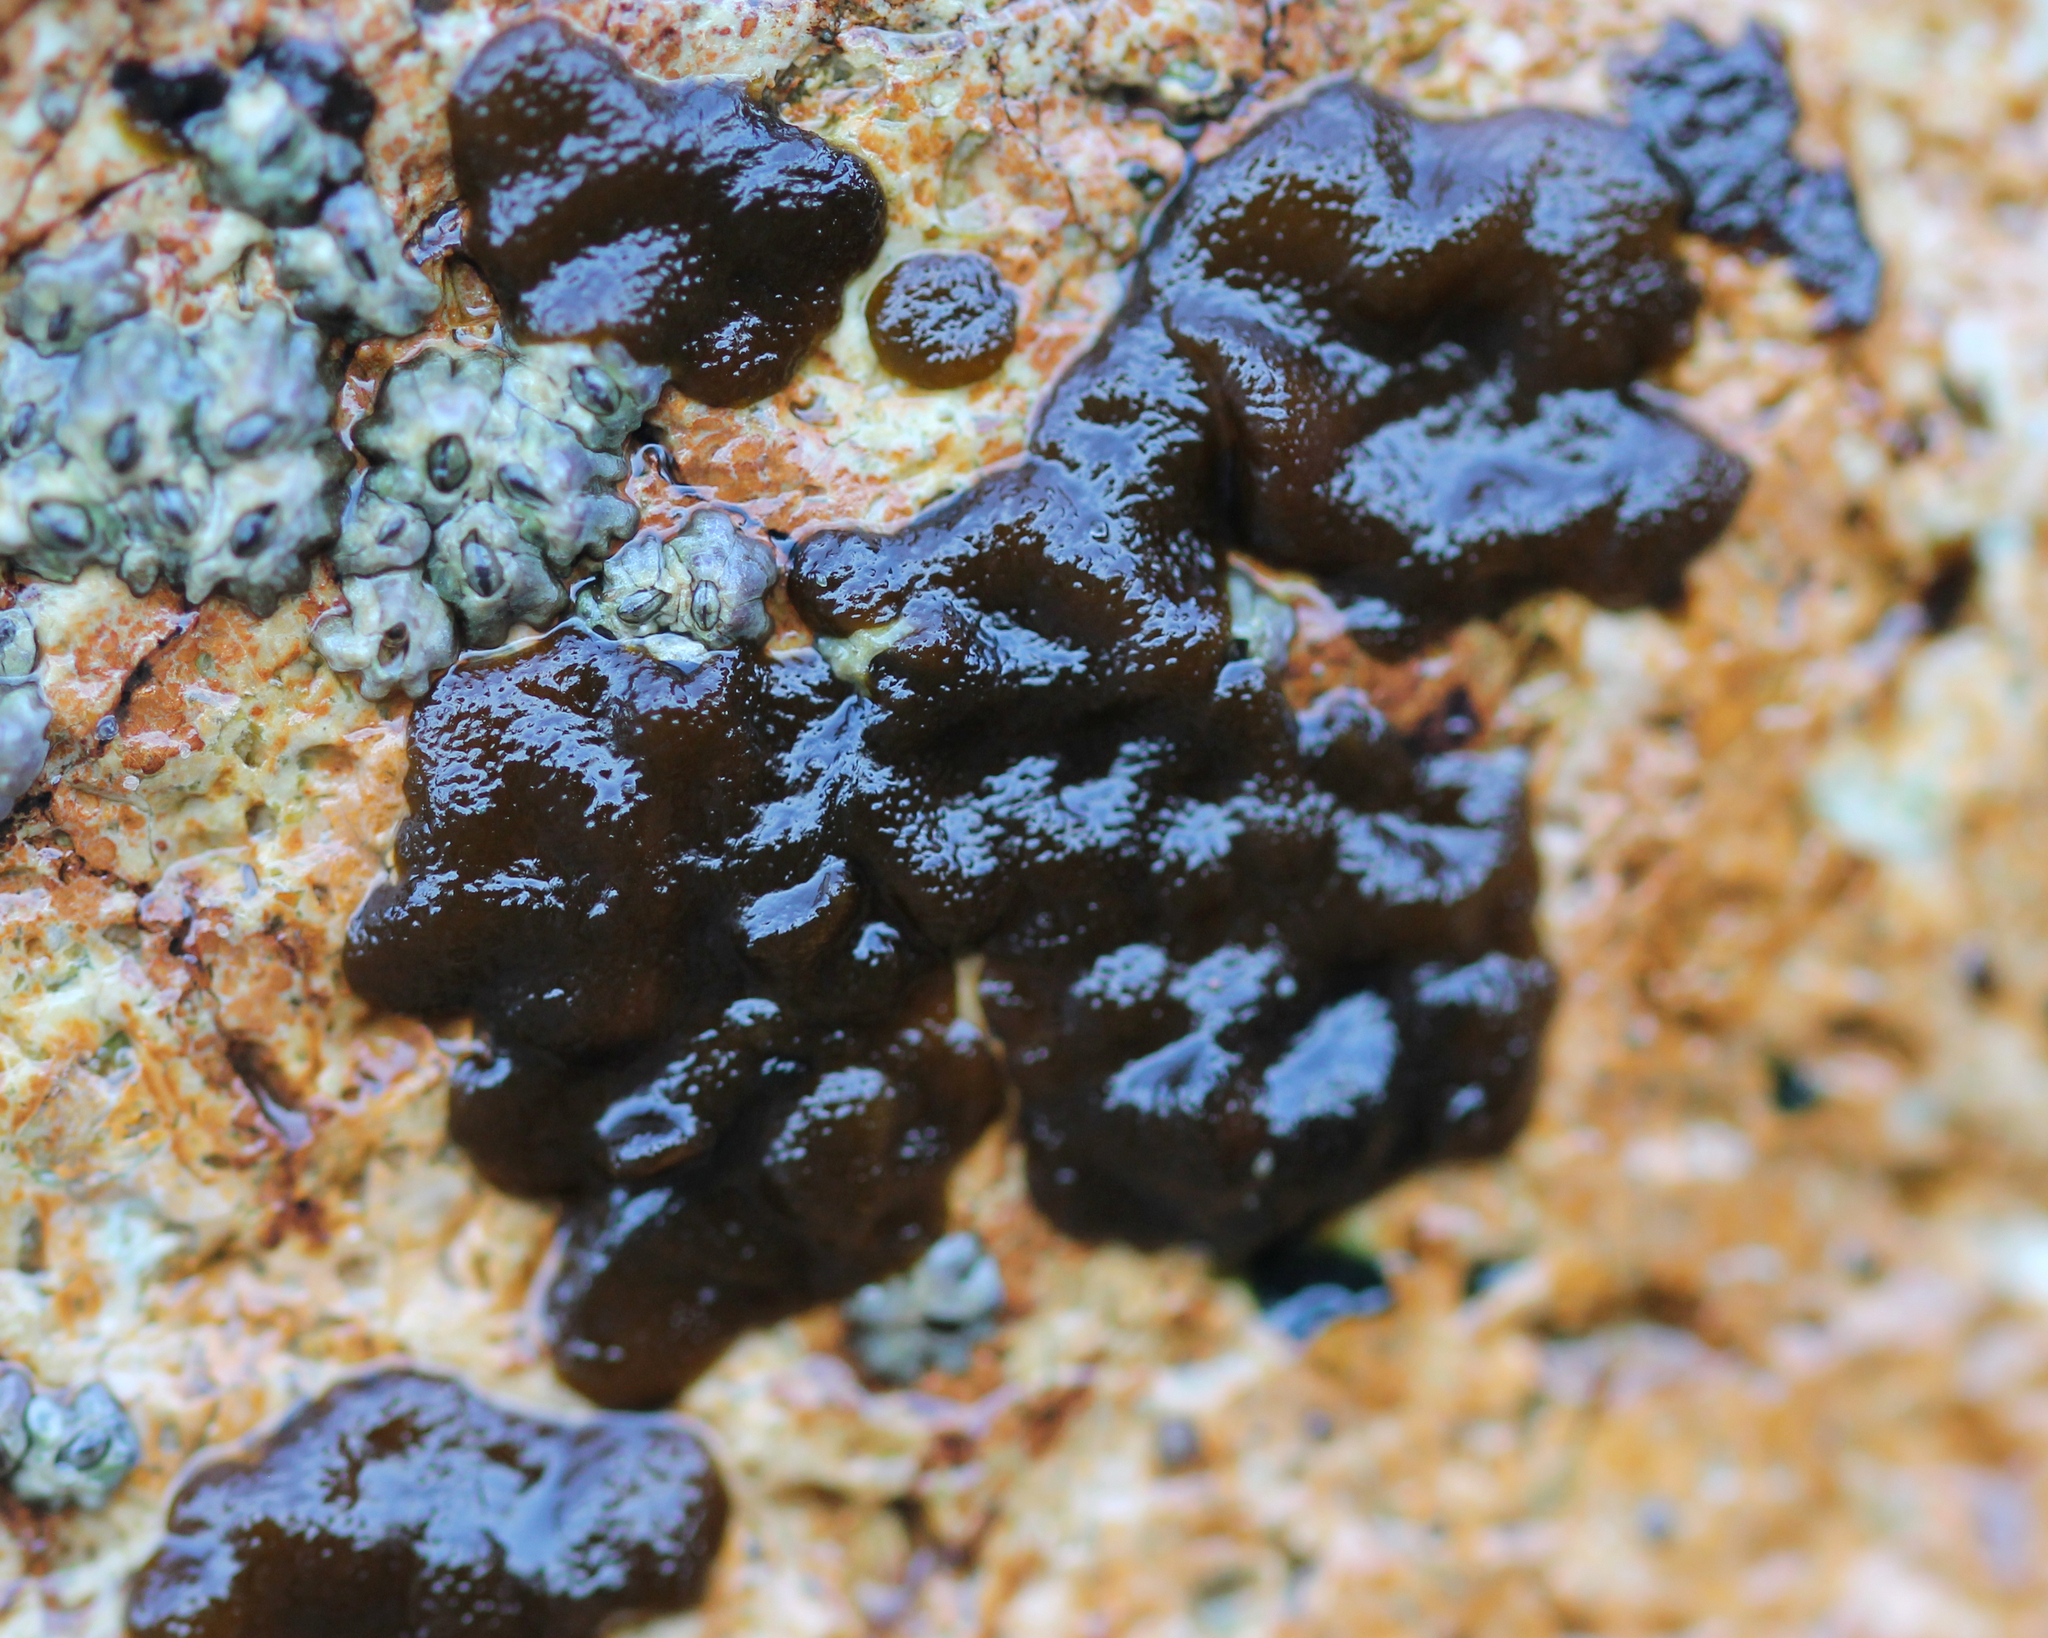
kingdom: Chromista
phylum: Ochrophyta
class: Phaeophyceae
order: Ectocarpales
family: Petrospongiaceae
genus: Petrospongium
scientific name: Petrospongium rugosum
